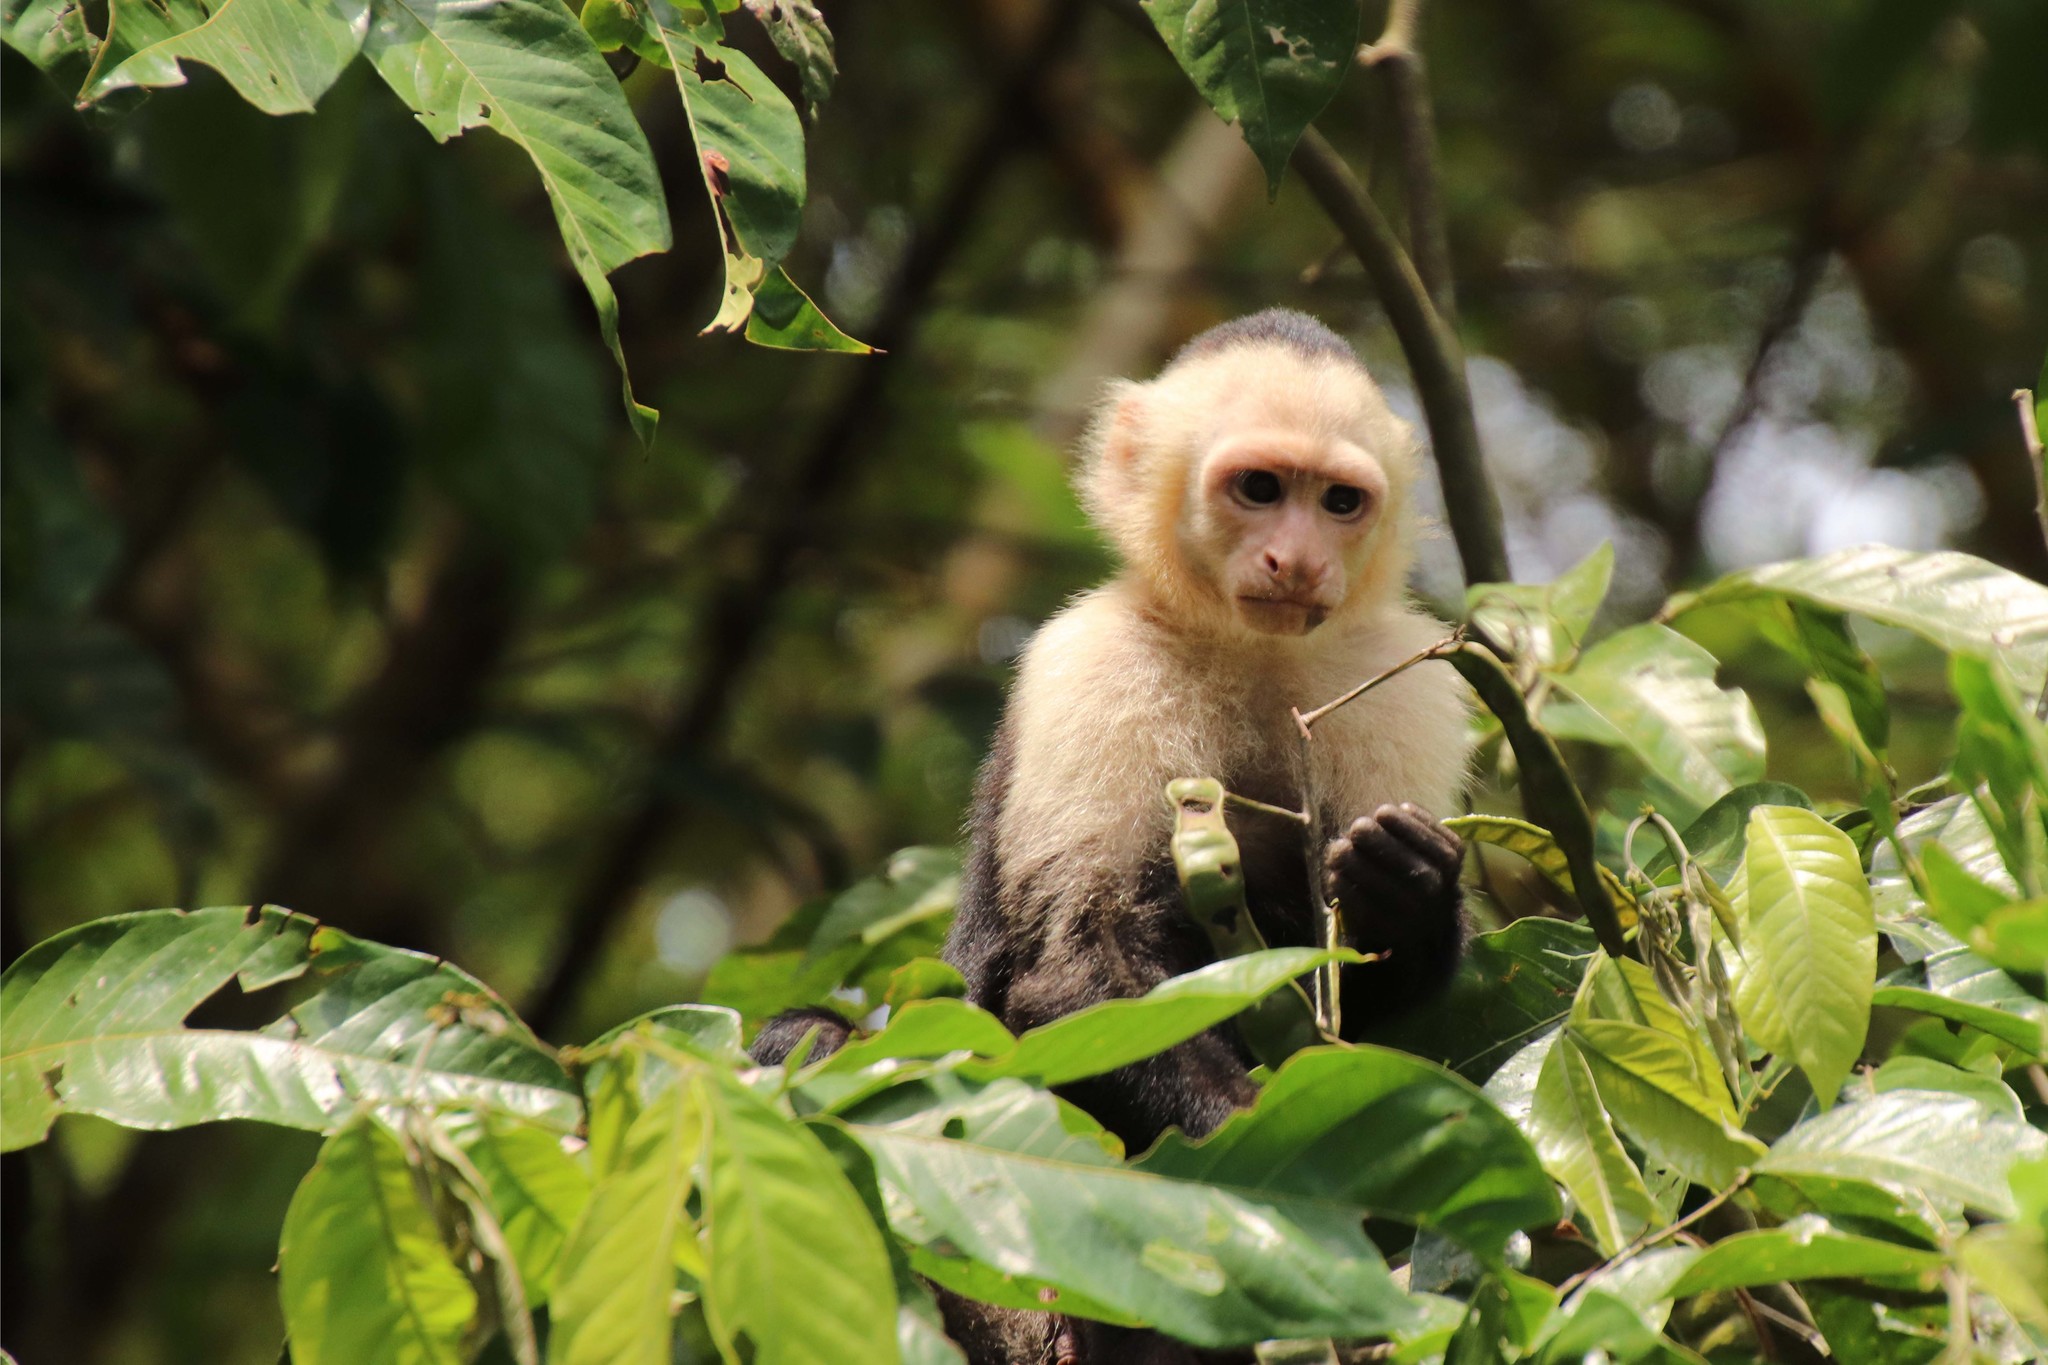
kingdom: Animalia
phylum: Chordata
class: Mammalia
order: Primates
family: Cebidae
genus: Cebus
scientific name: Cebus imitator
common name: Panamanian white-faced capuchin
